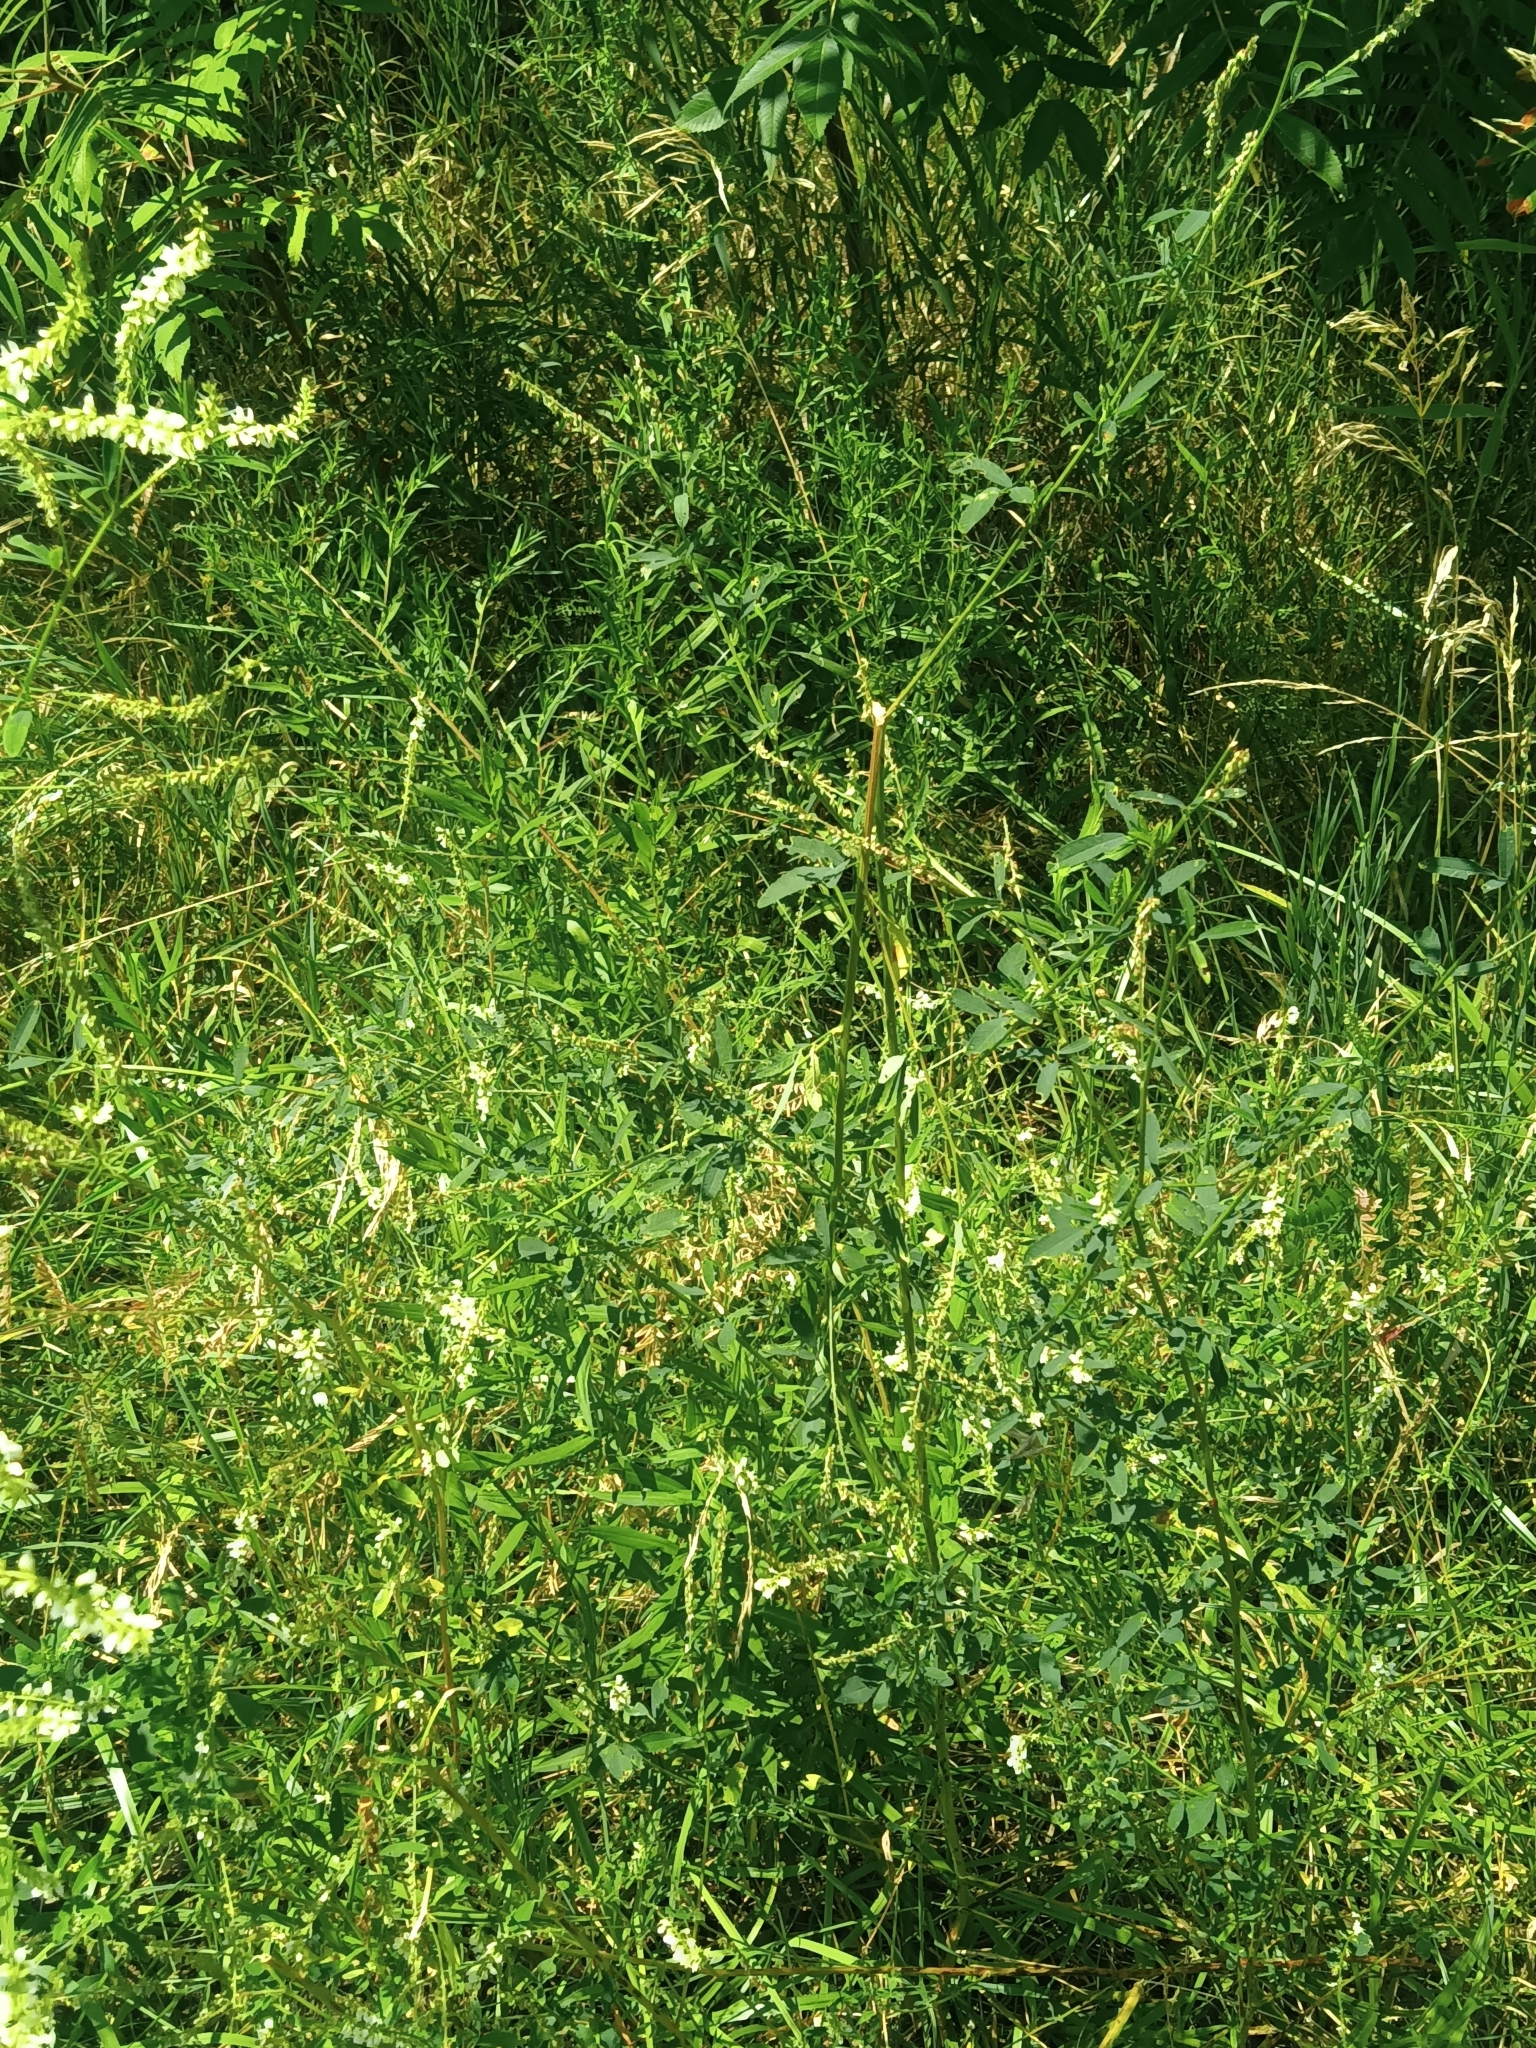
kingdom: Plantae
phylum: Tracheophyta
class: Magnoliopsida
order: Fabales
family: Fabaceae
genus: Melilotus
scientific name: Melilotus albus
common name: White melilot
